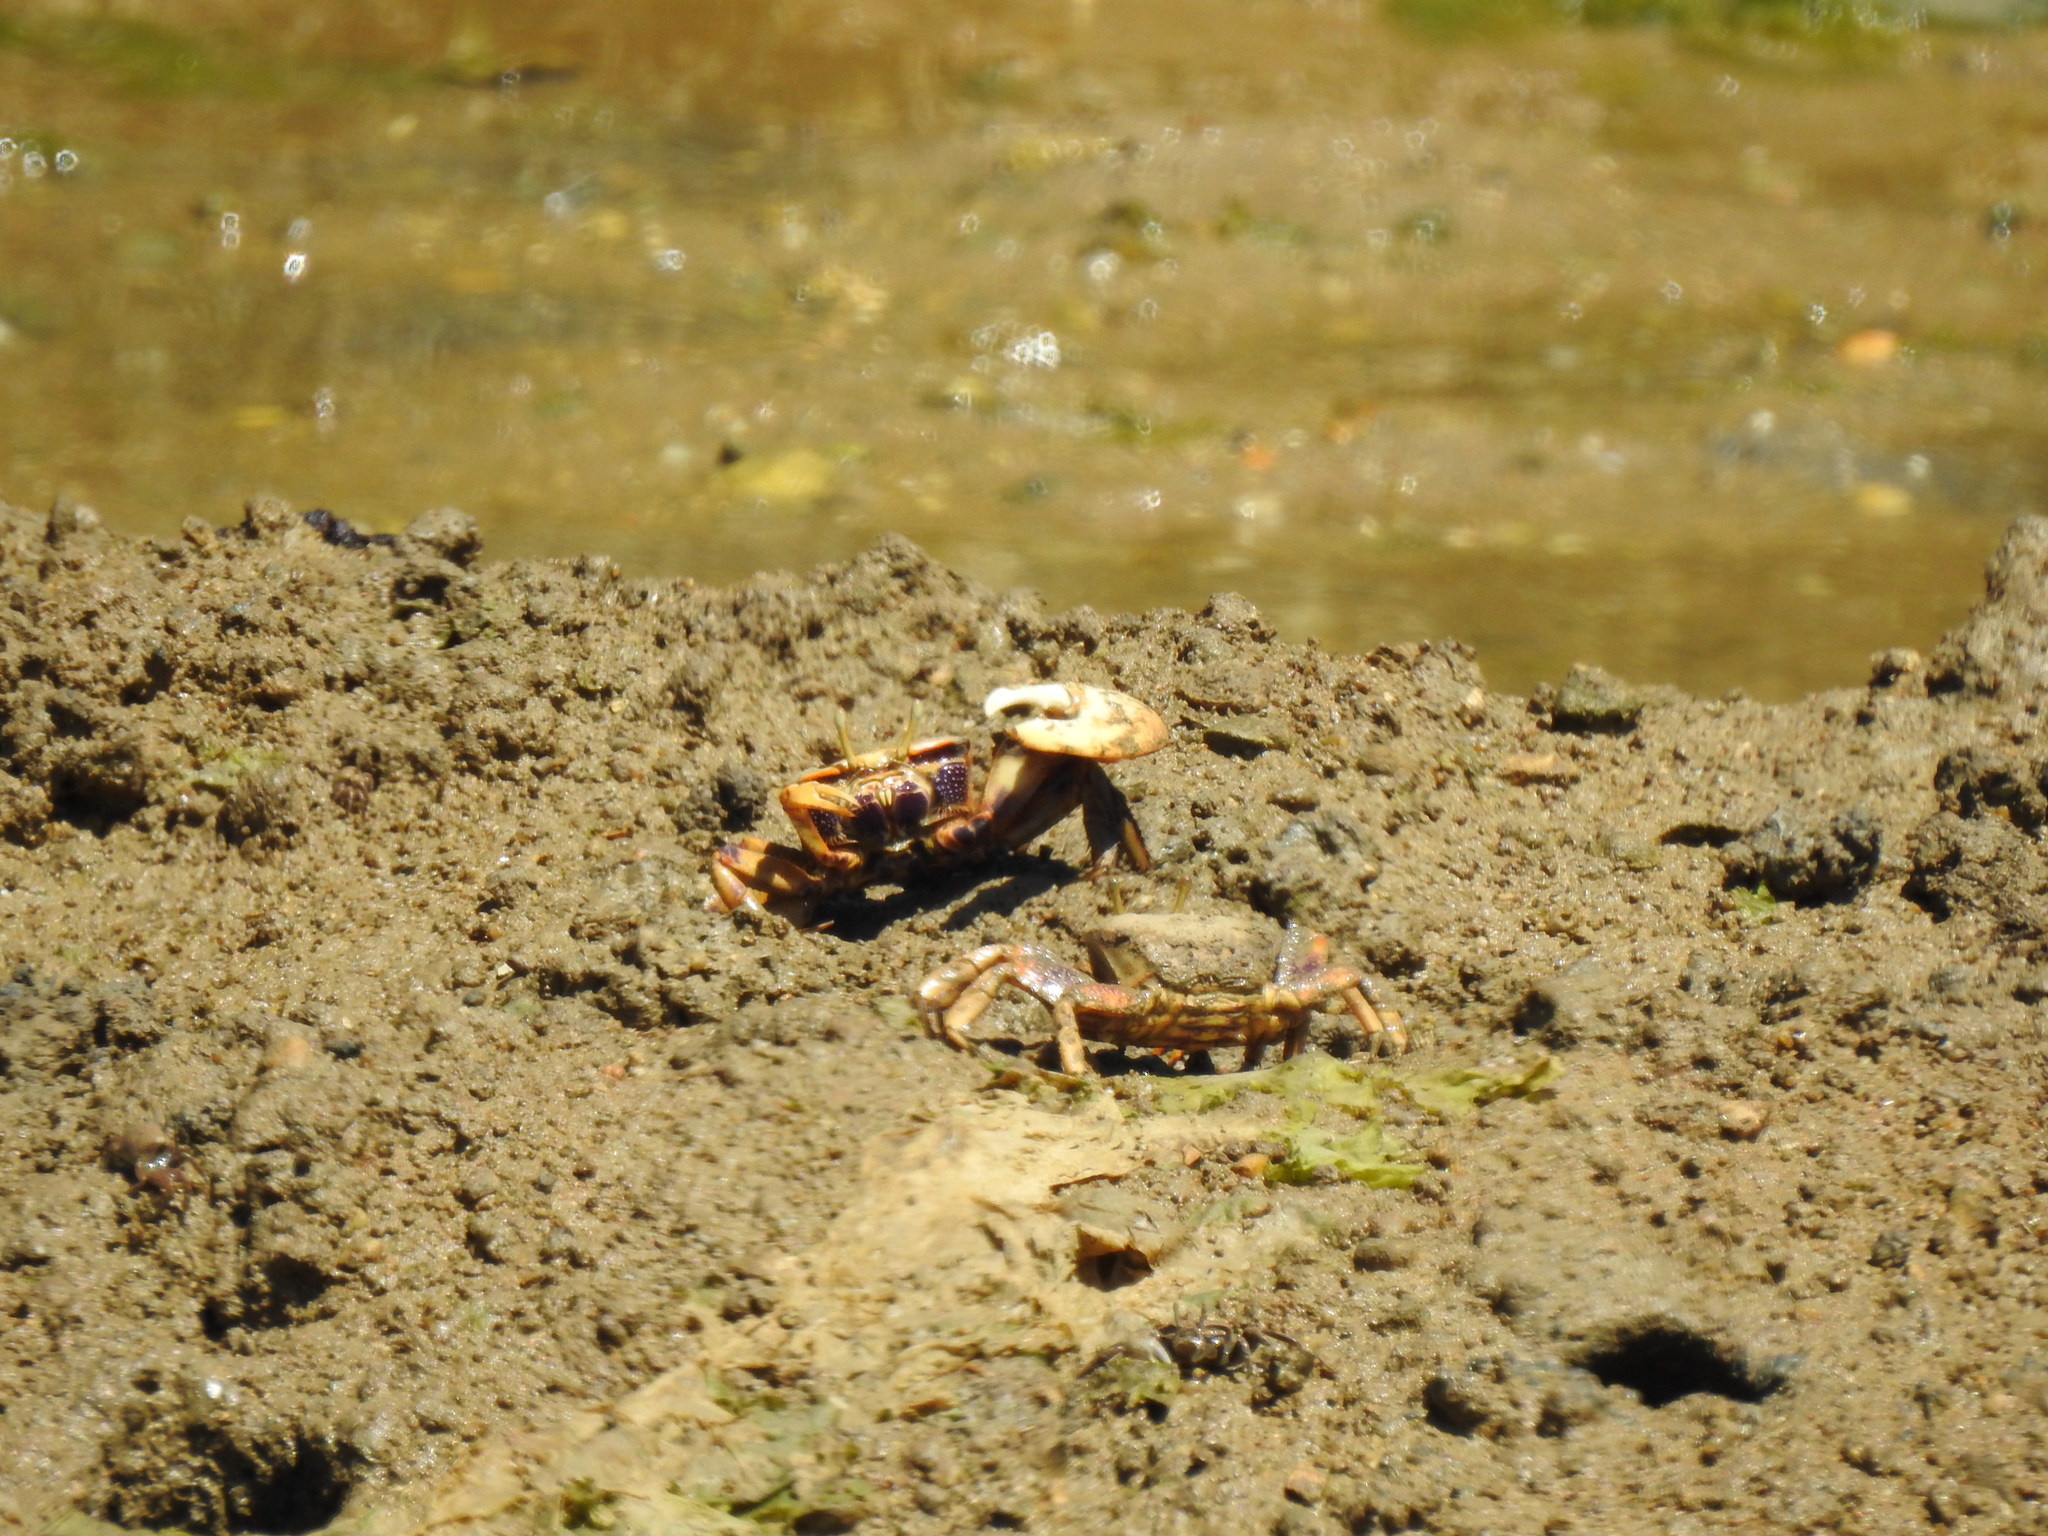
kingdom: Animalia
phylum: Arthropoda
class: Malacostraca
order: Decapoda
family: Ocypodidae
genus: Afruca
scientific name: Afruca tangeri
